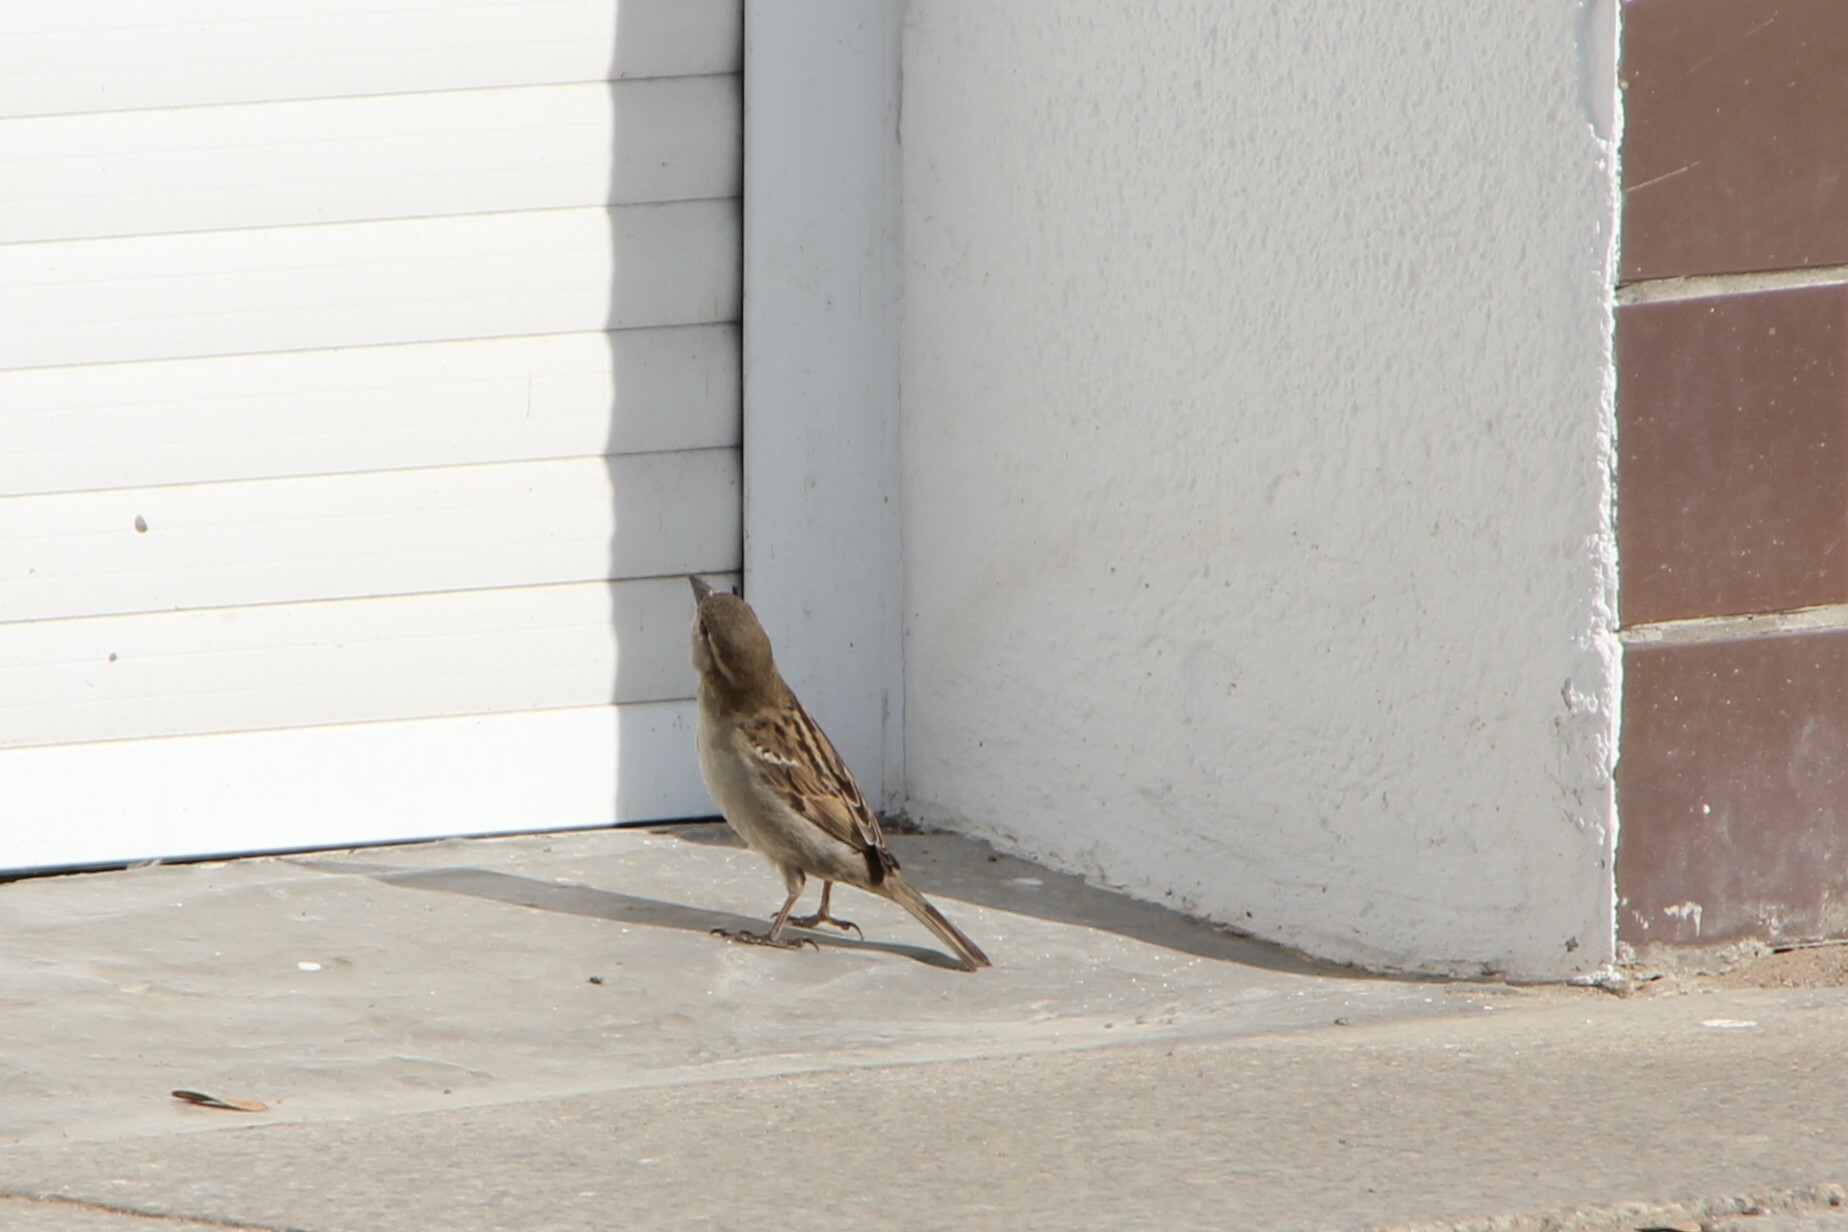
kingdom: Animalia
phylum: Chordata
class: Aves
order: Passeriformes
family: Passeridae
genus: Passer
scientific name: Passer domesticus
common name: House sparrow
